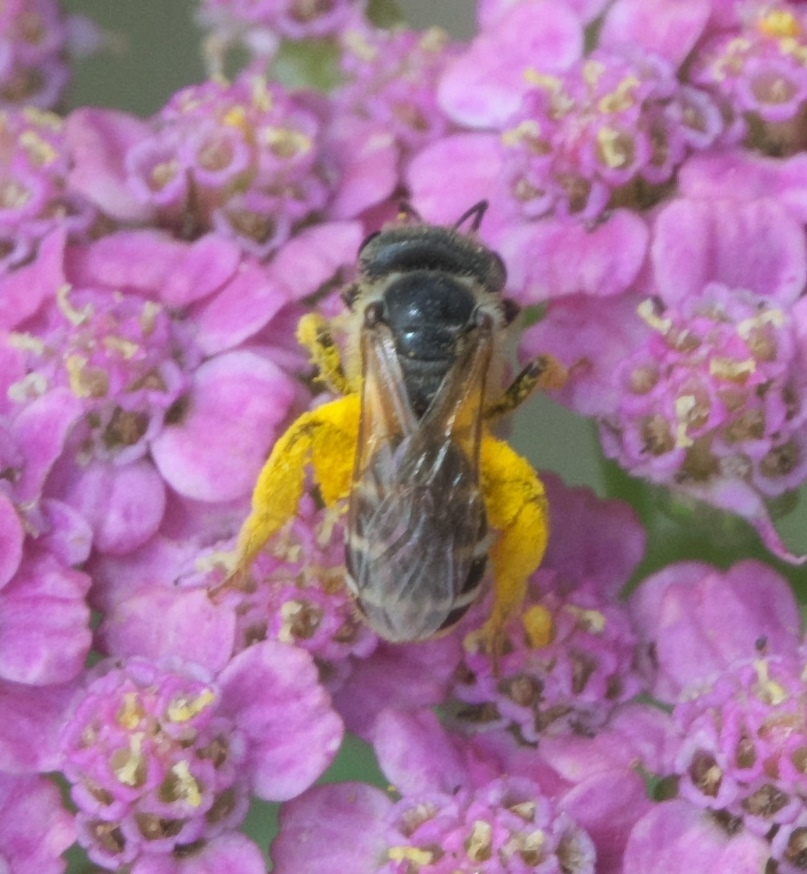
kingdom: Animalia
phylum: Arthropoda
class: Insecta
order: Hymenoptera
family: Halictidae
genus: Halictus
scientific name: Halictus ligatus
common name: Ligated furrow bee
